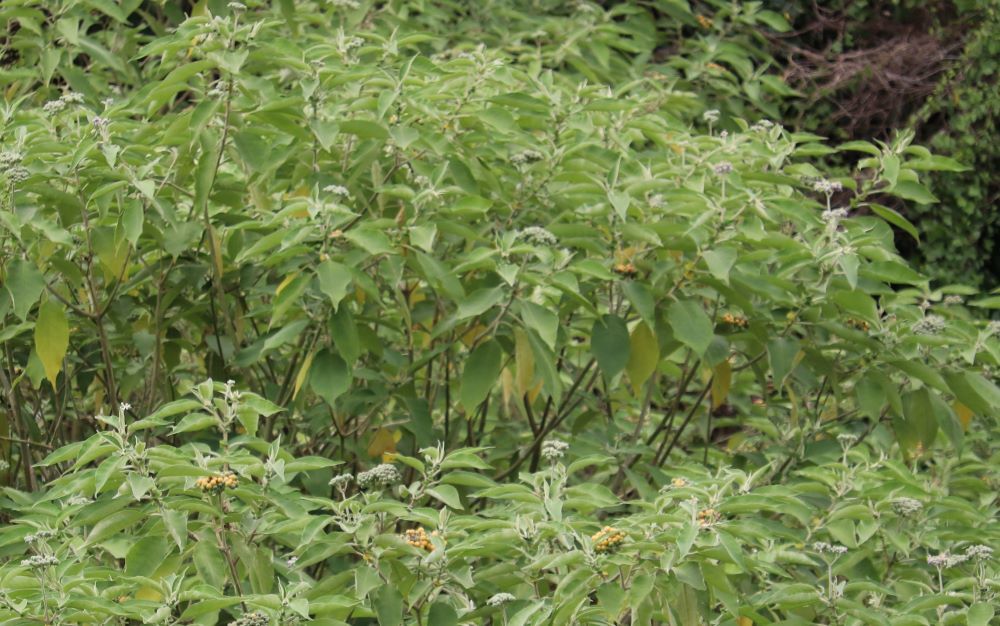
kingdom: Plantae
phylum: Tracheophyta
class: Magnoliopsida
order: Solanales
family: Solanaceae
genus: Solanum
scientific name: Solanum mauritianum
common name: Earleaf nightshade
